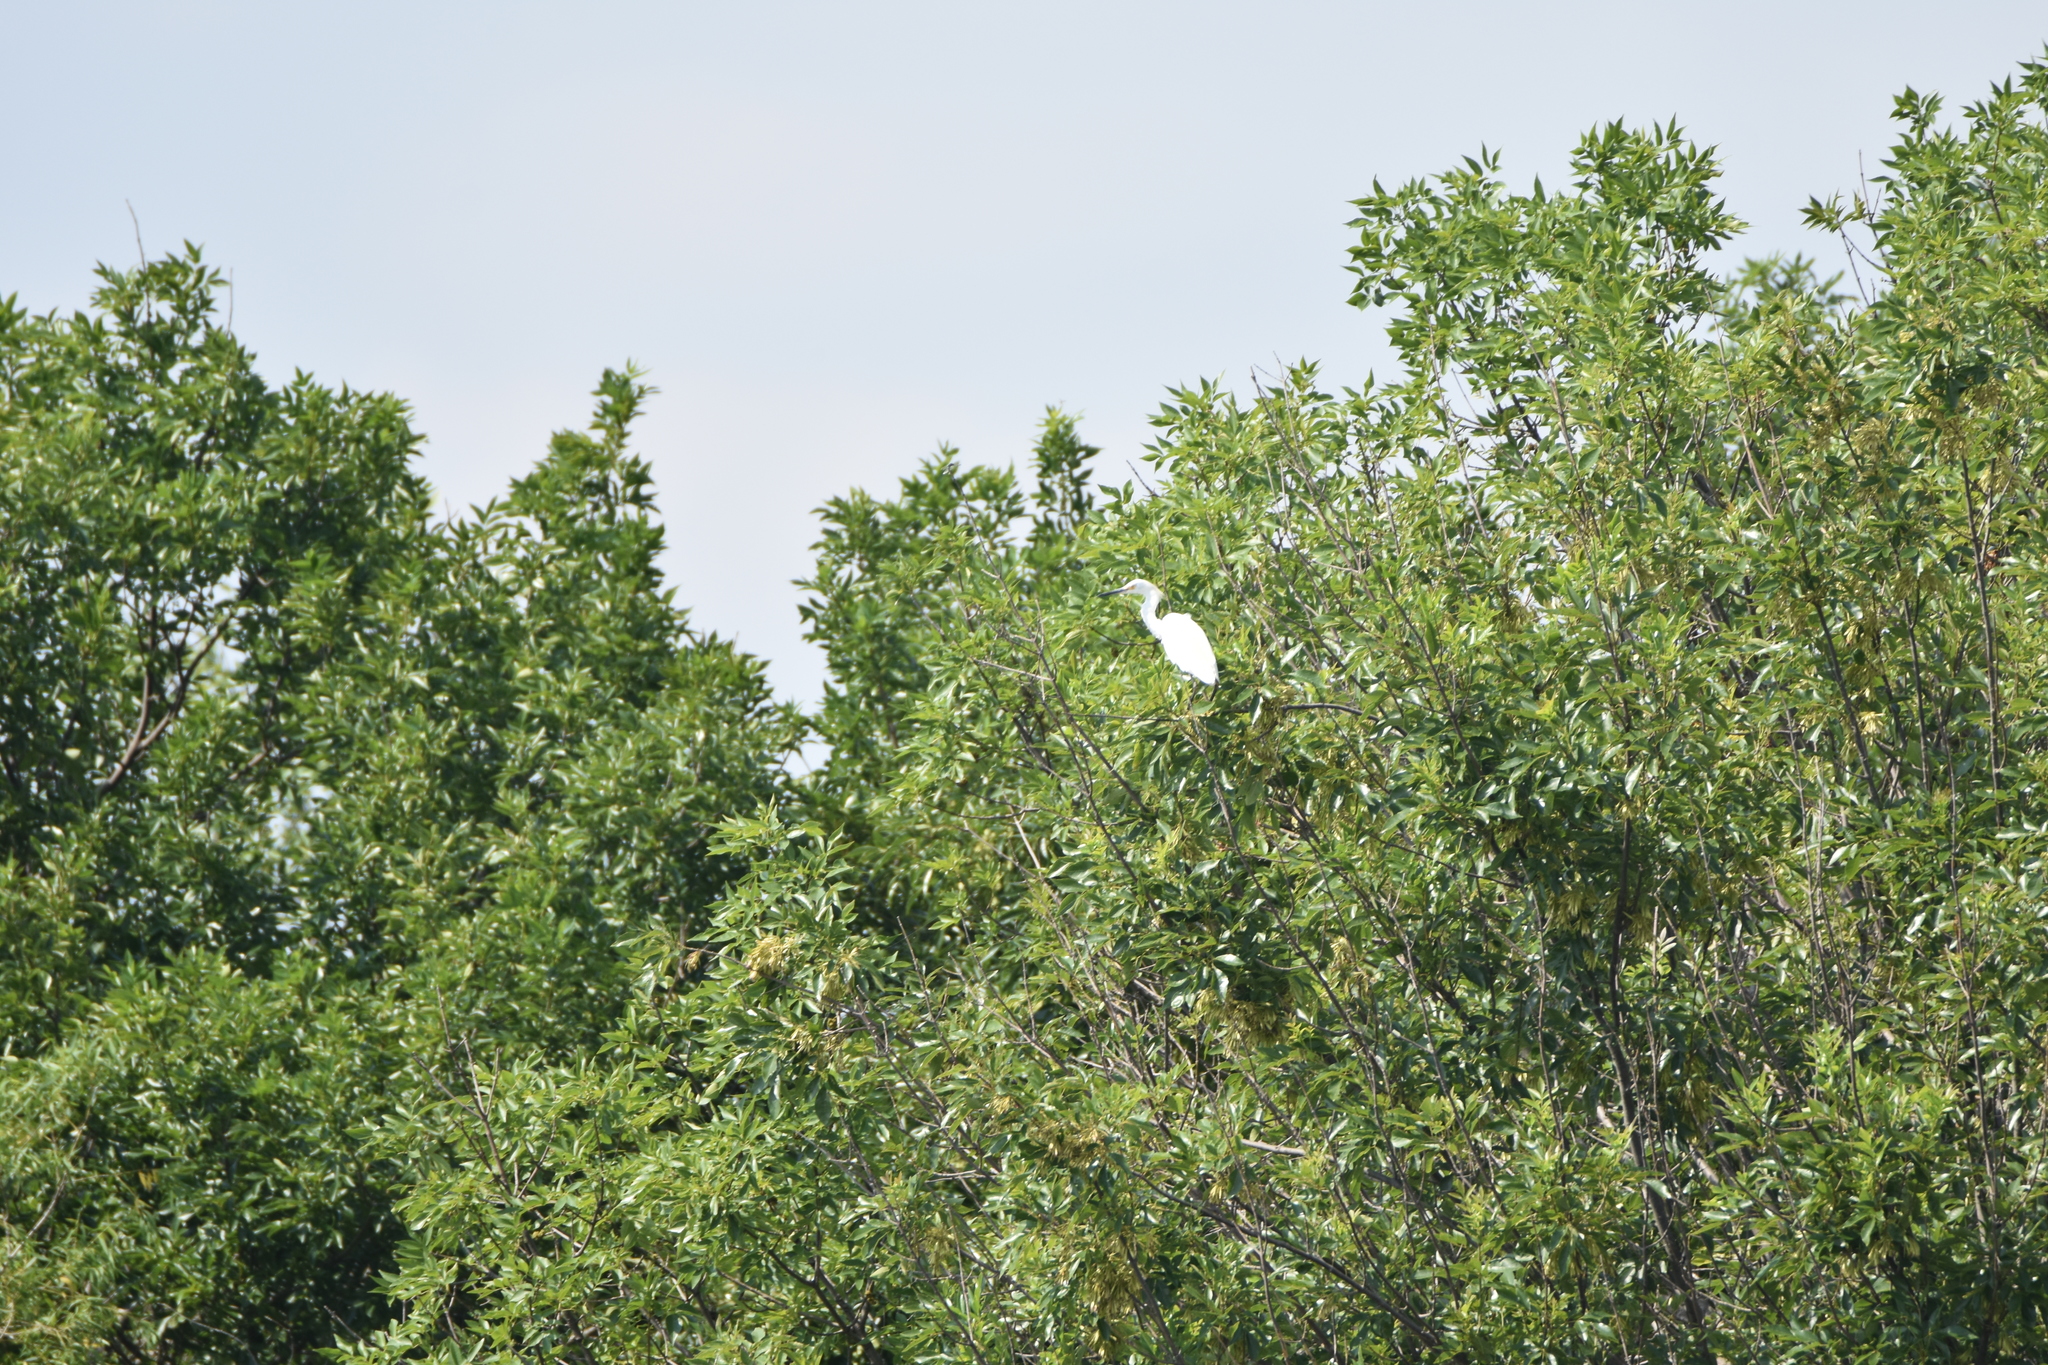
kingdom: Animalia
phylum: Chordata
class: Aves
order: Pelecaniformes
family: Ardeidae
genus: Egretta
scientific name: Egretta thula
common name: Snowy egret
